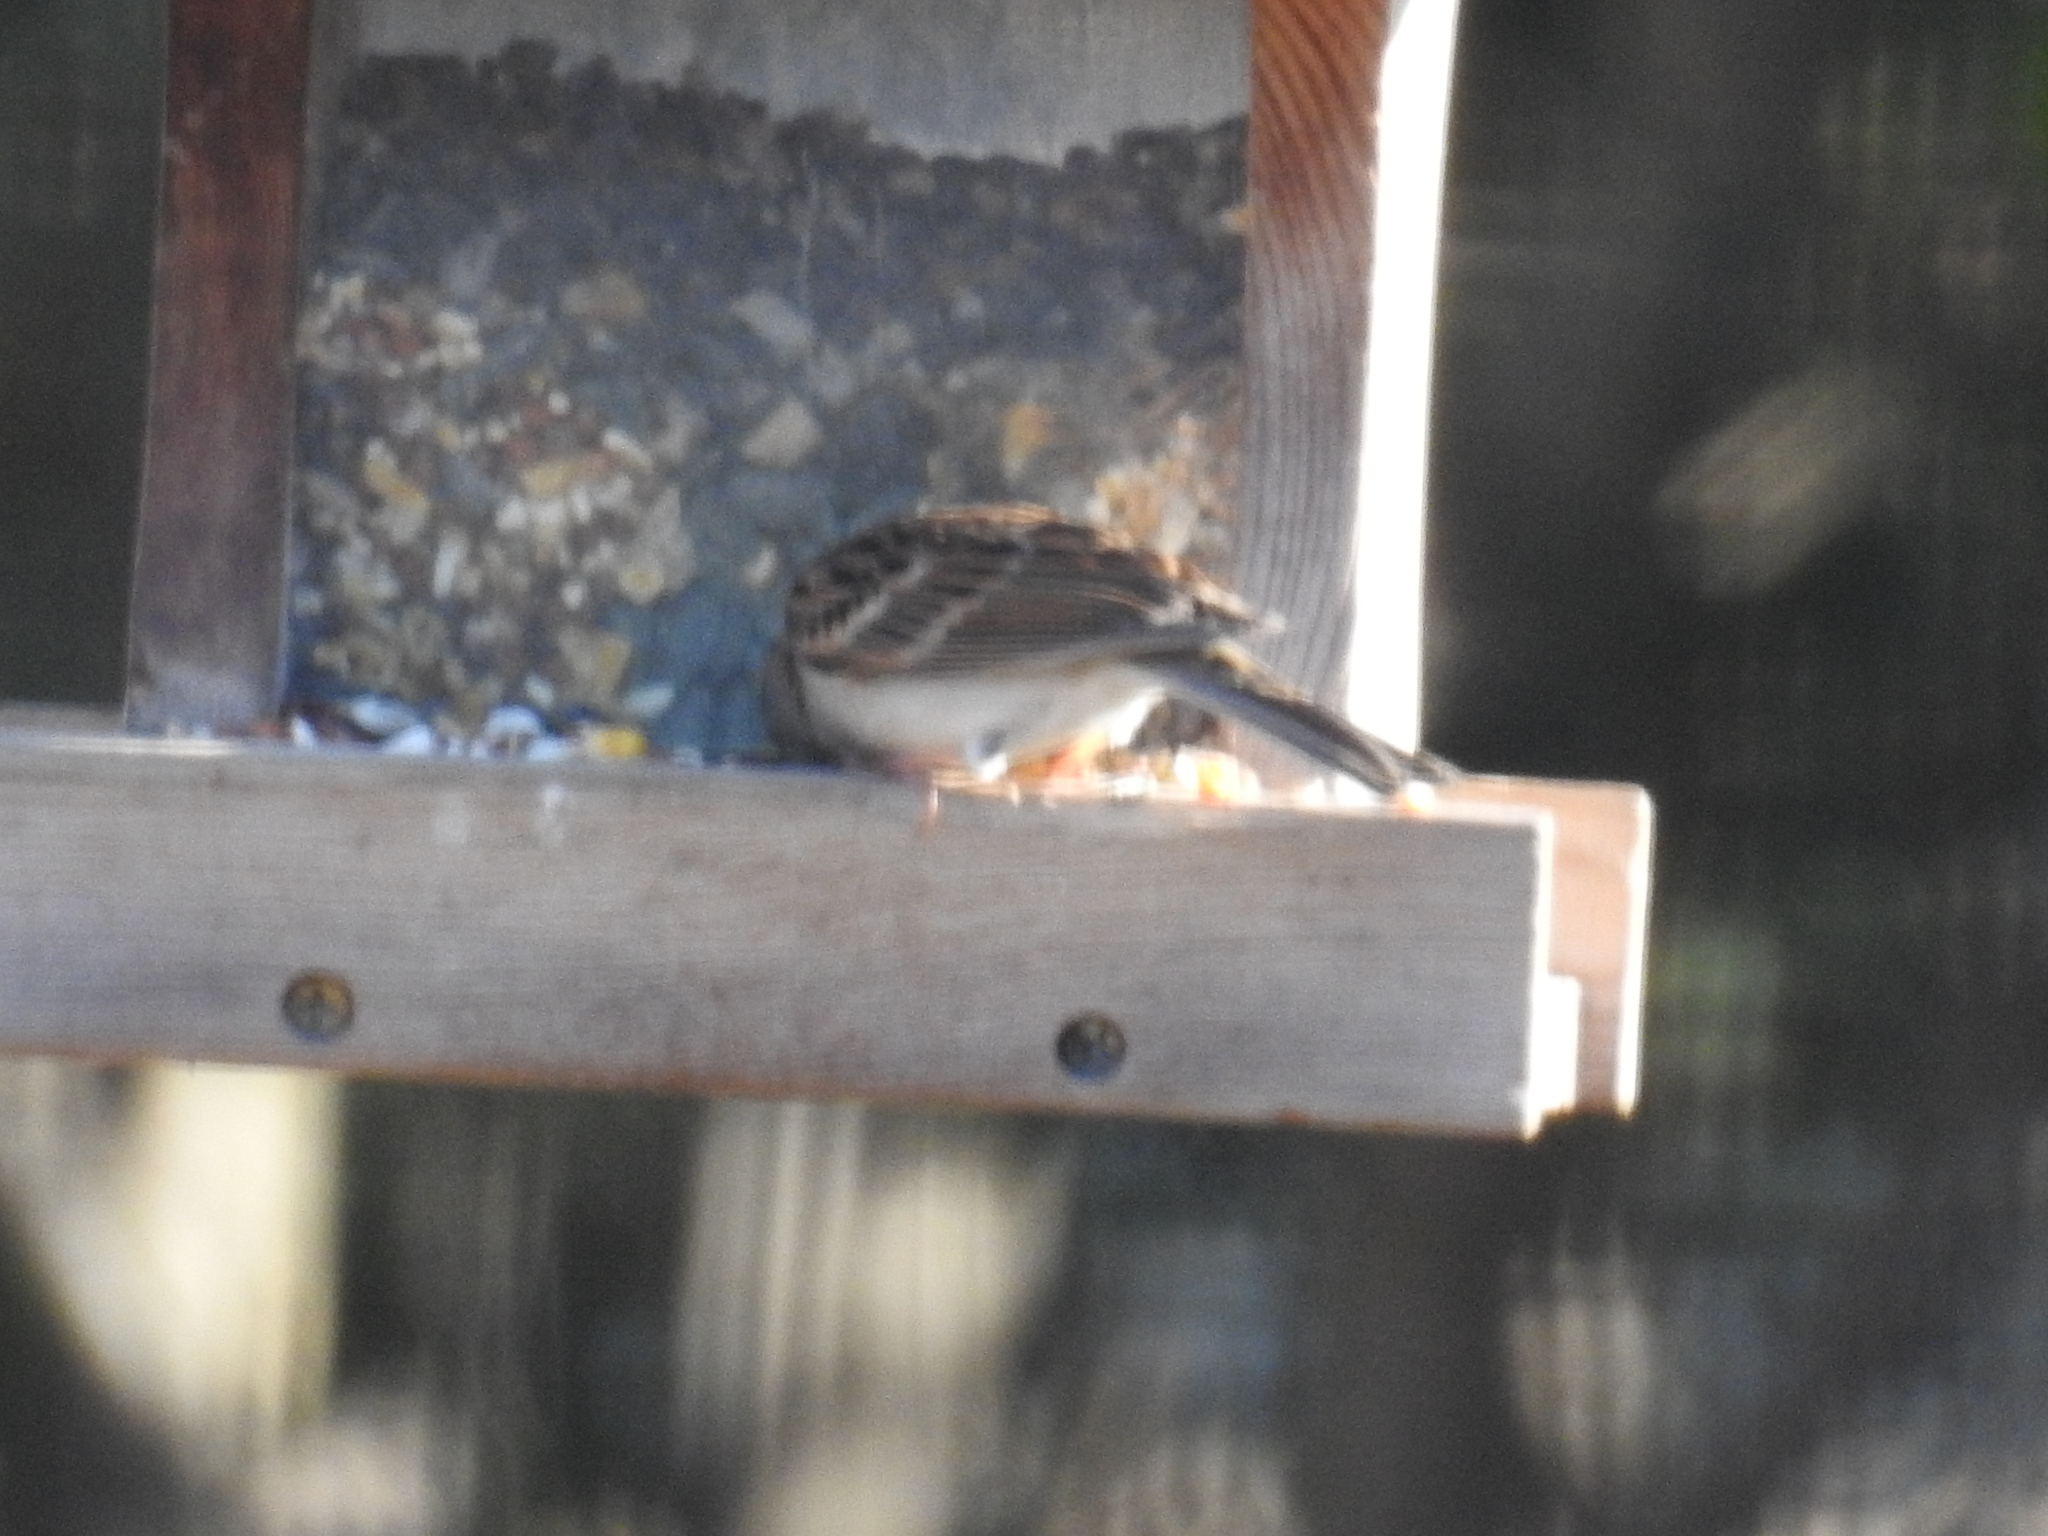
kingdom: Animalia
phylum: Chordata
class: Aves
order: Passeriformes
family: Passerellidae
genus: Spizella
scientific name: Spizella passerina
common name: Chipping sparrow
